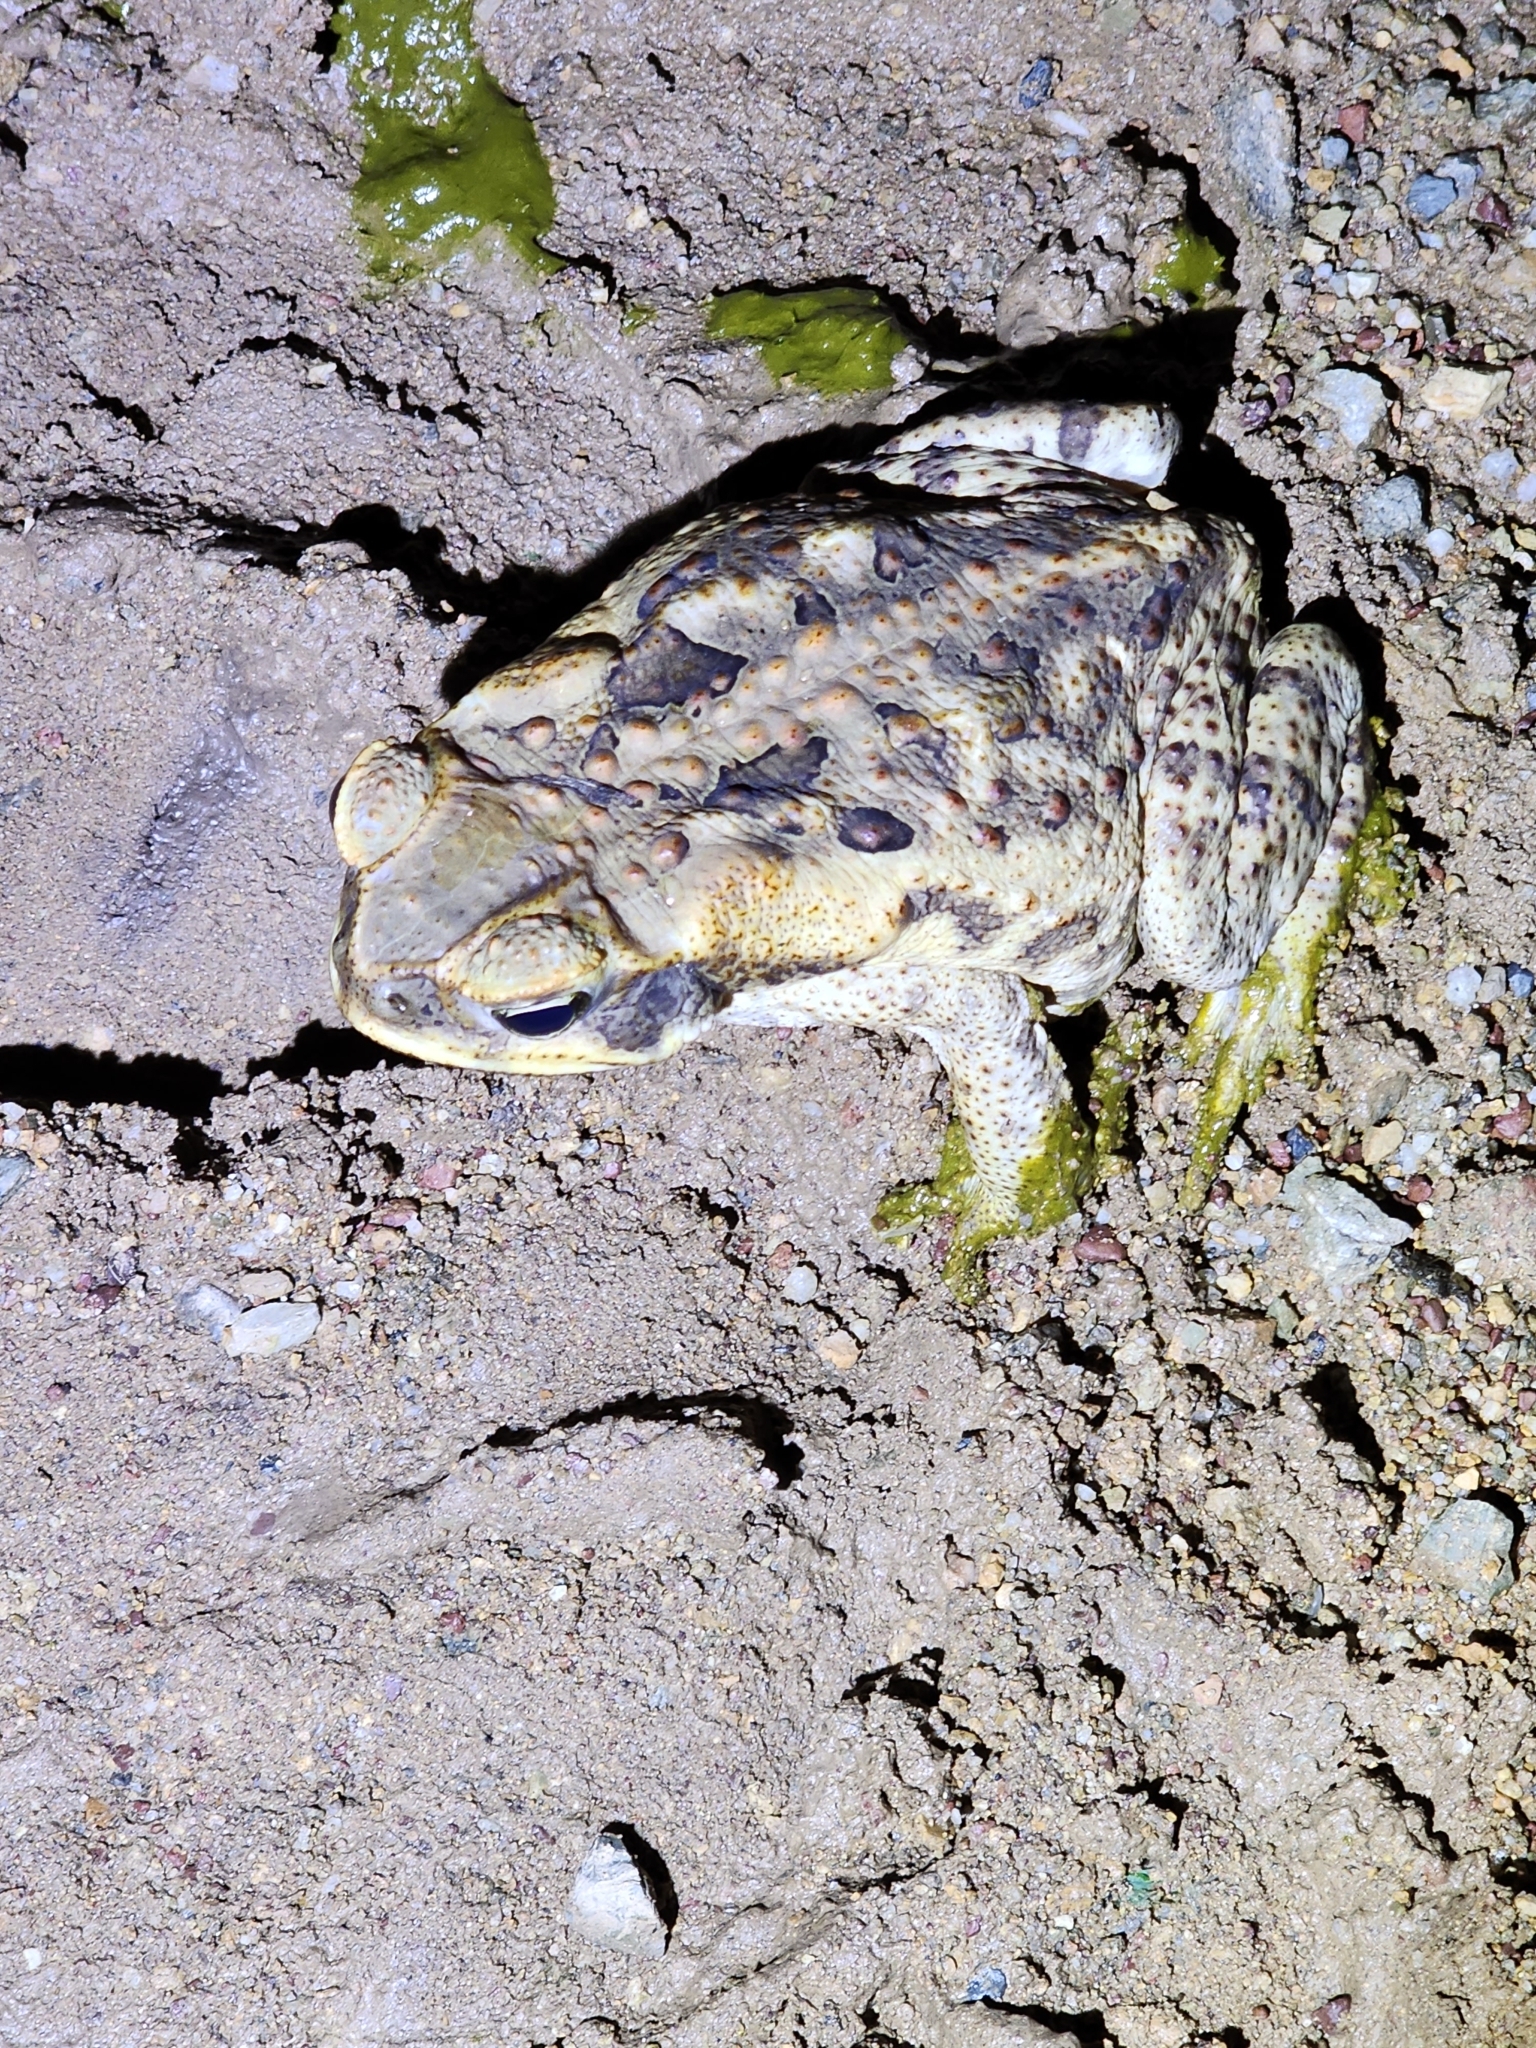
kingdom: Animalia
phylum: Chordata
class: Amphibia
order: Anura
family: Bufonidae
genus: Rhinella
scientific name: Rhinella marina
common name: Cane toad
